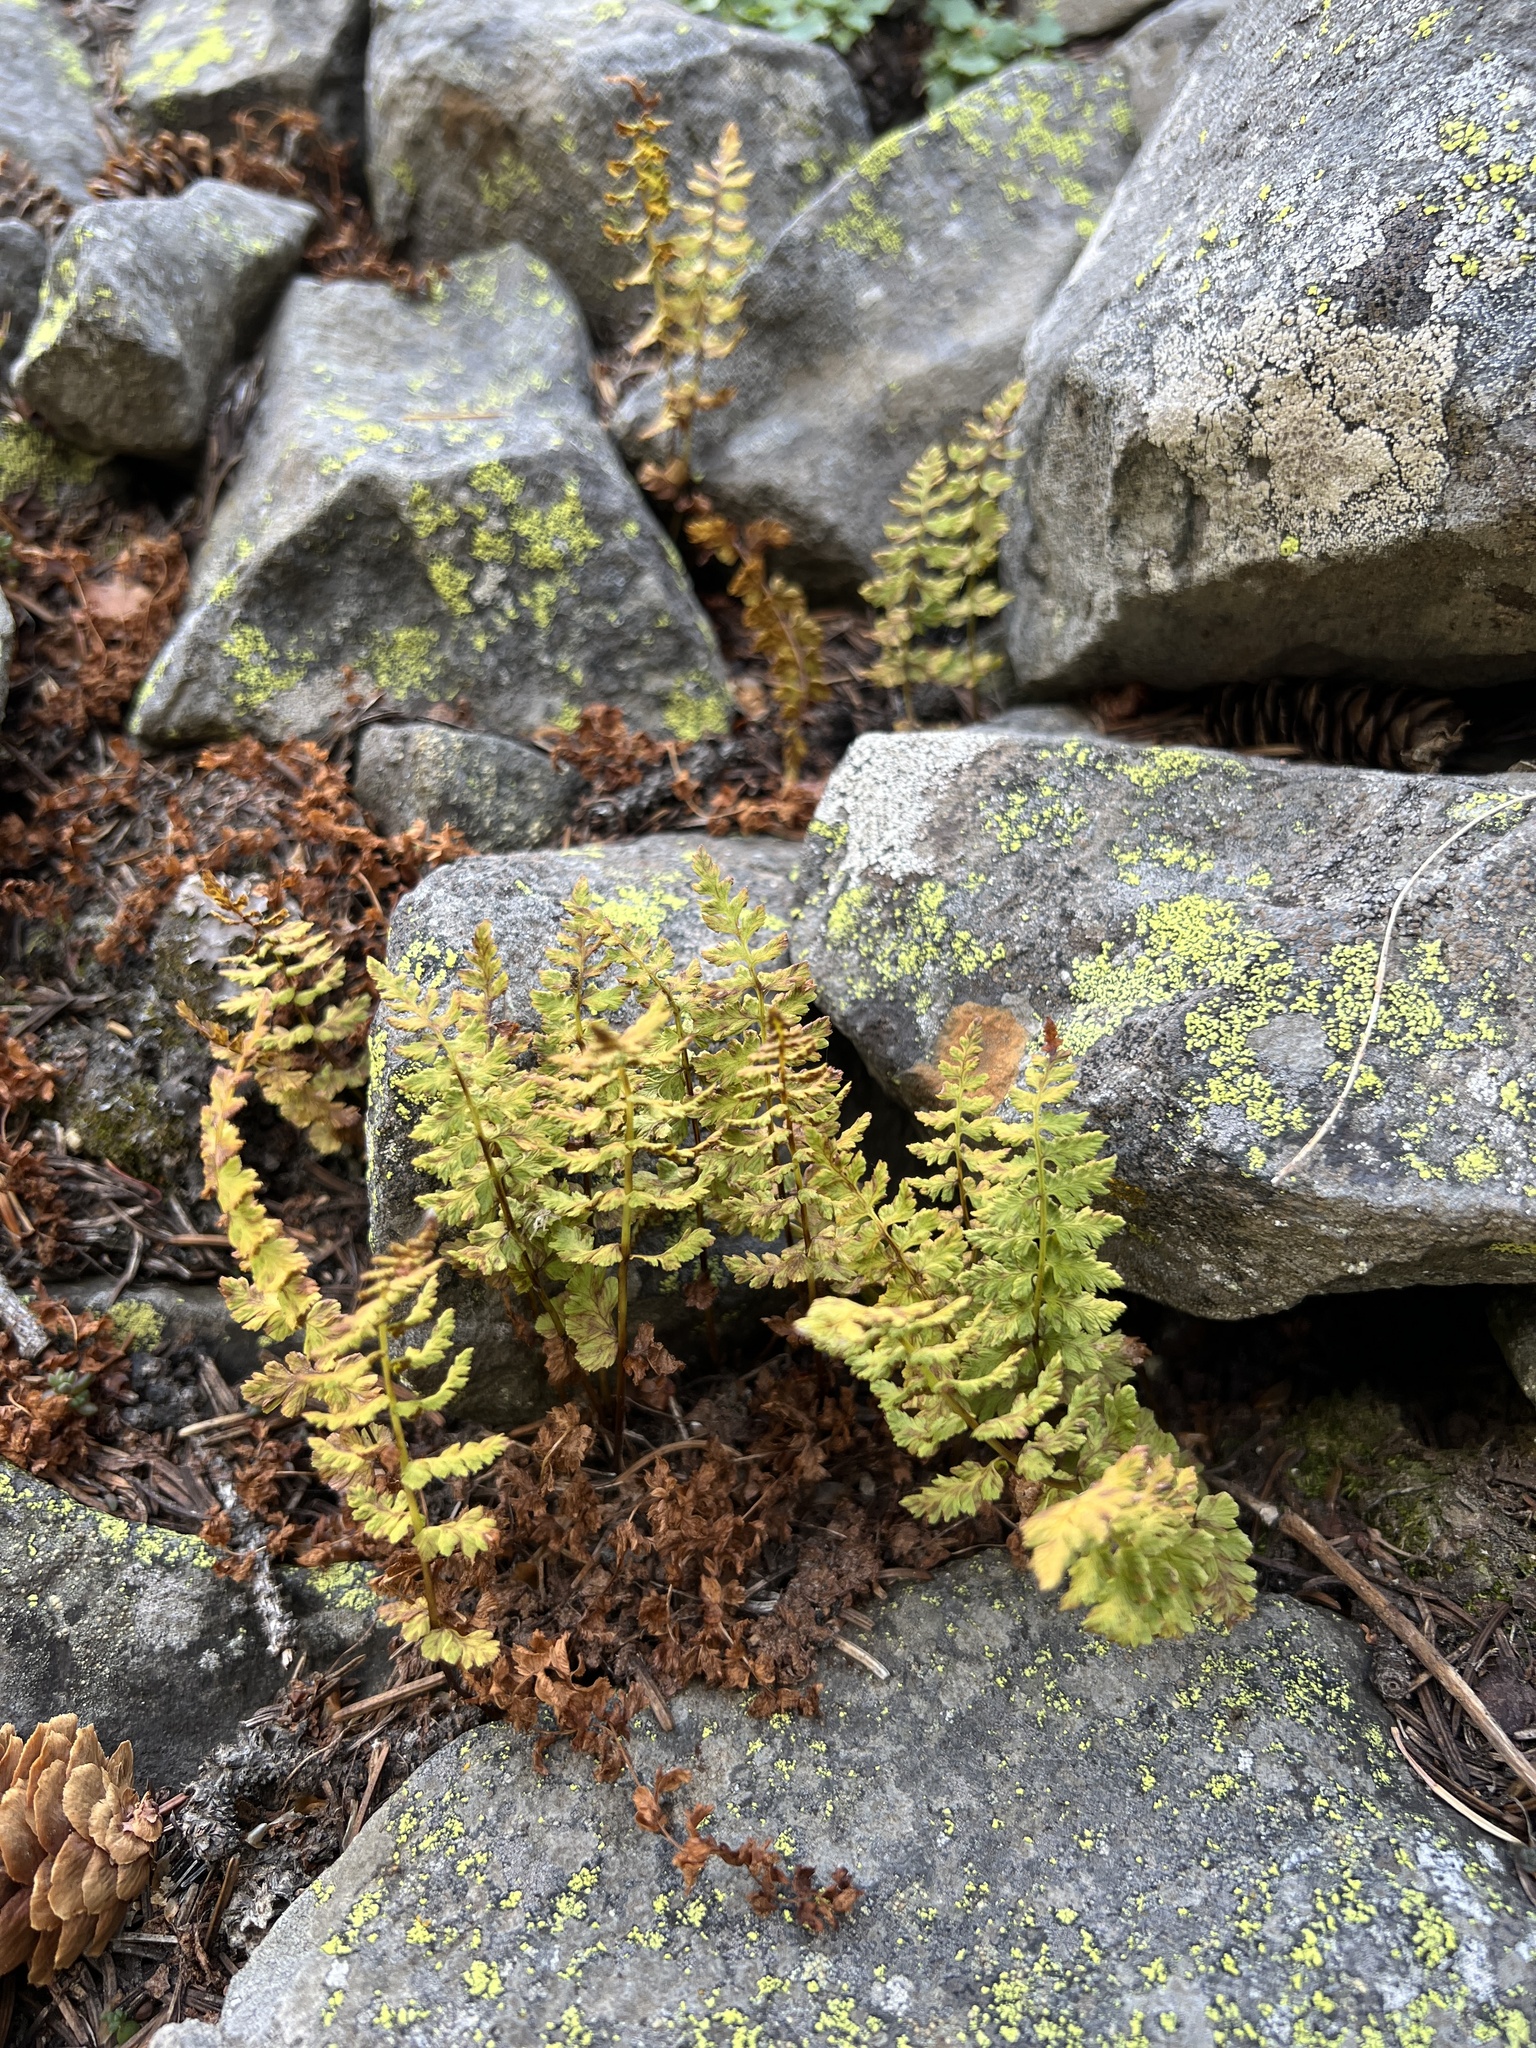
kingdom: Plantae
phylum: Tracheophyta
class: Polypodiopsida
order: Polypodiales
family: Cystopteridaceae
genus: Cystopteris
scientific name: Cystopteris fragilis
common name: Brittle bladder fern
